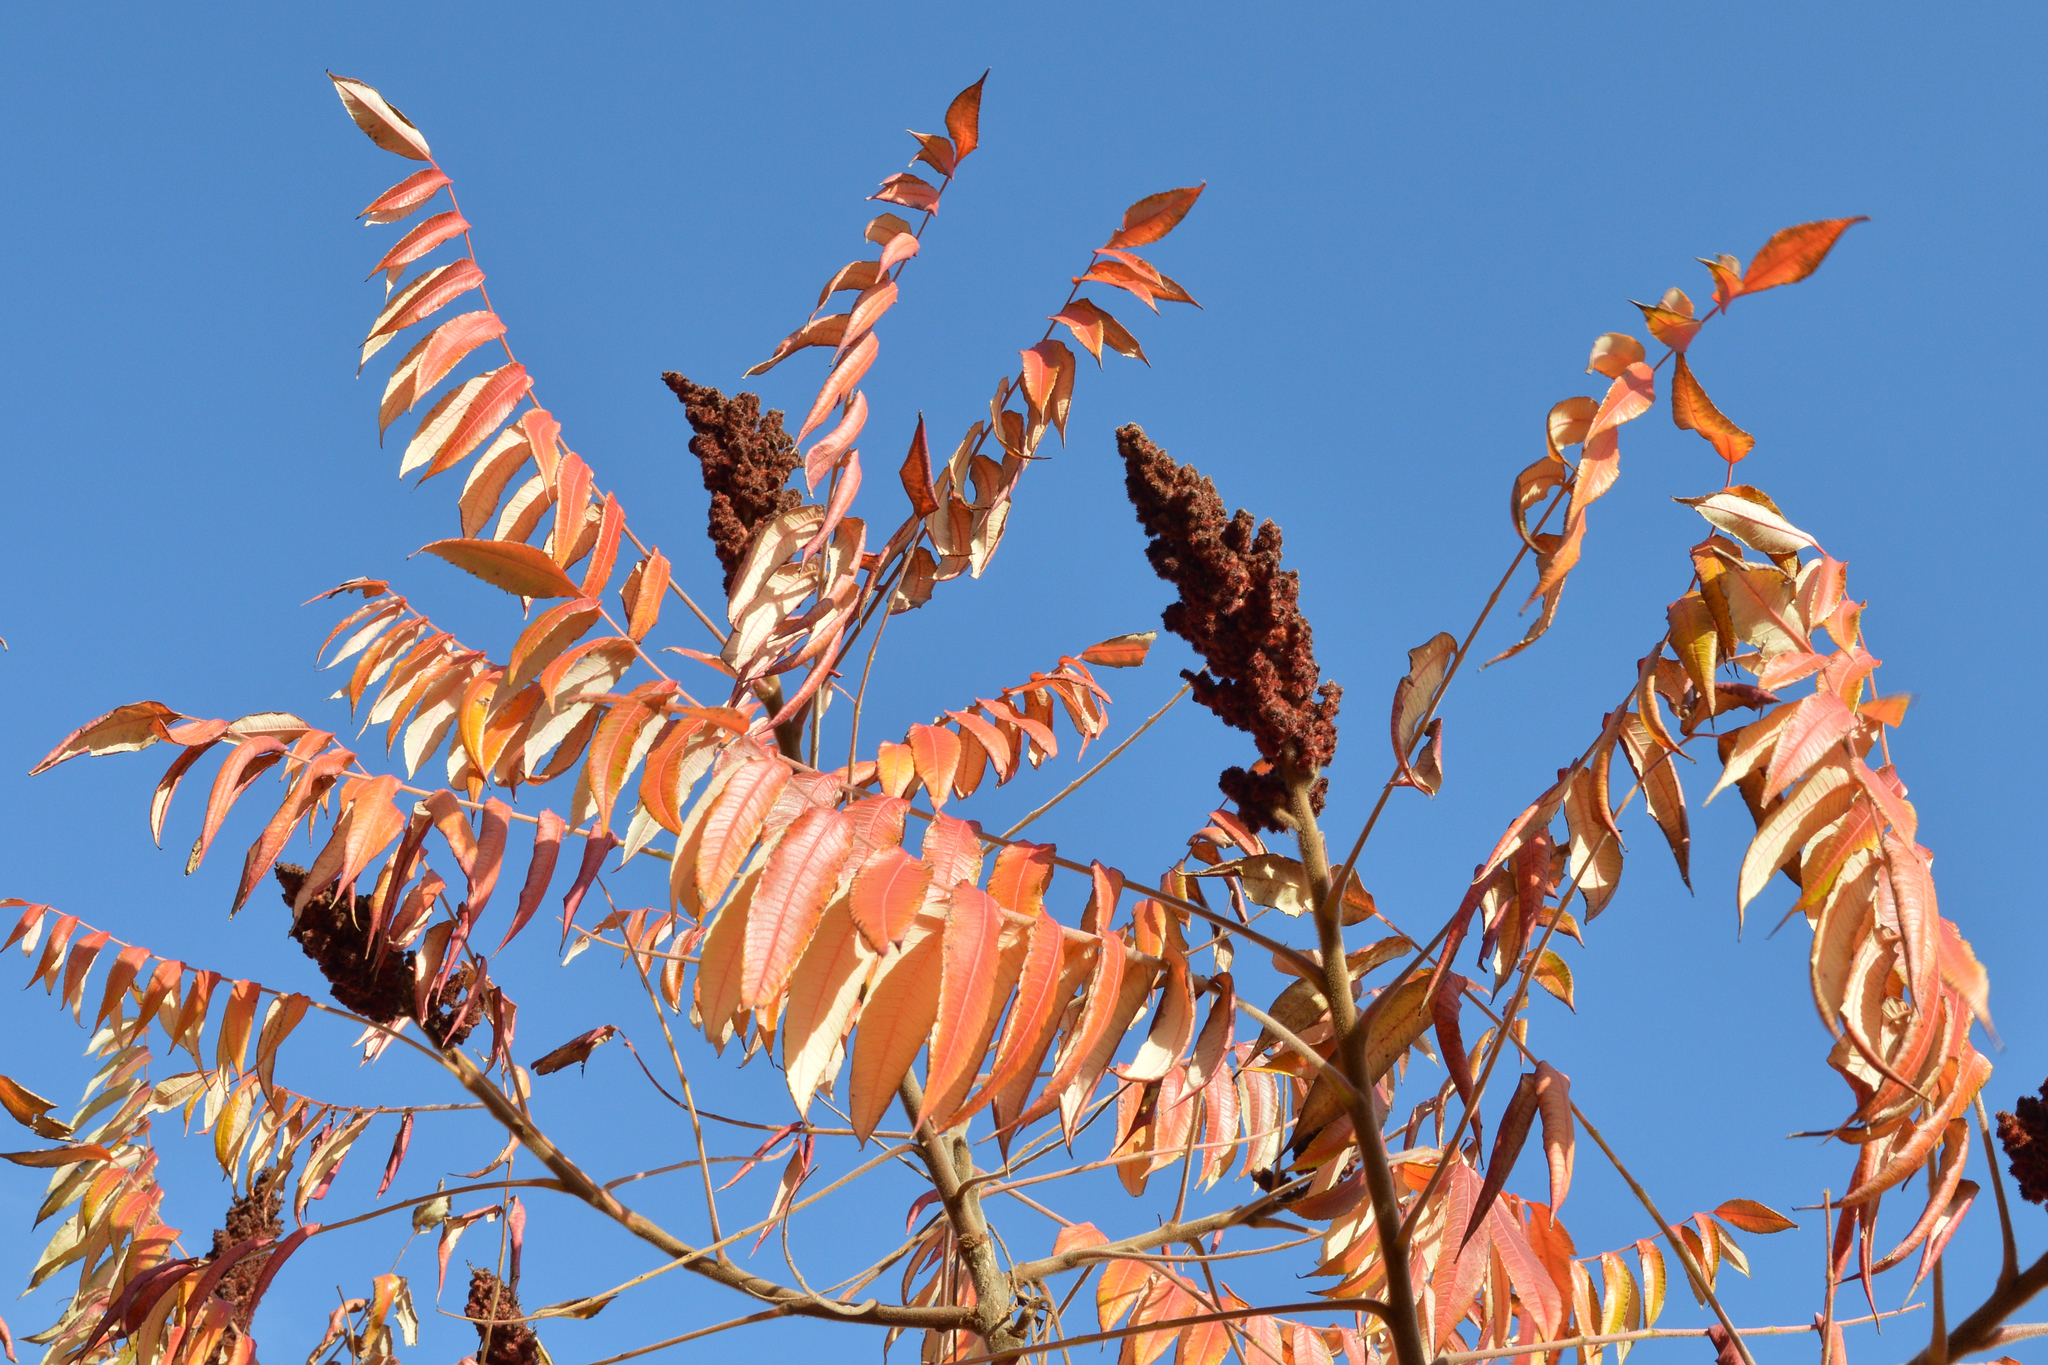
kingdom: Plantae
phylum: Tracheophyta
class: Magnoliopsida
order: Sapindales
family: Anacardiaceae
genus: Rhus
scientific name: Rhus typhina
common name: Staghorn sumac
